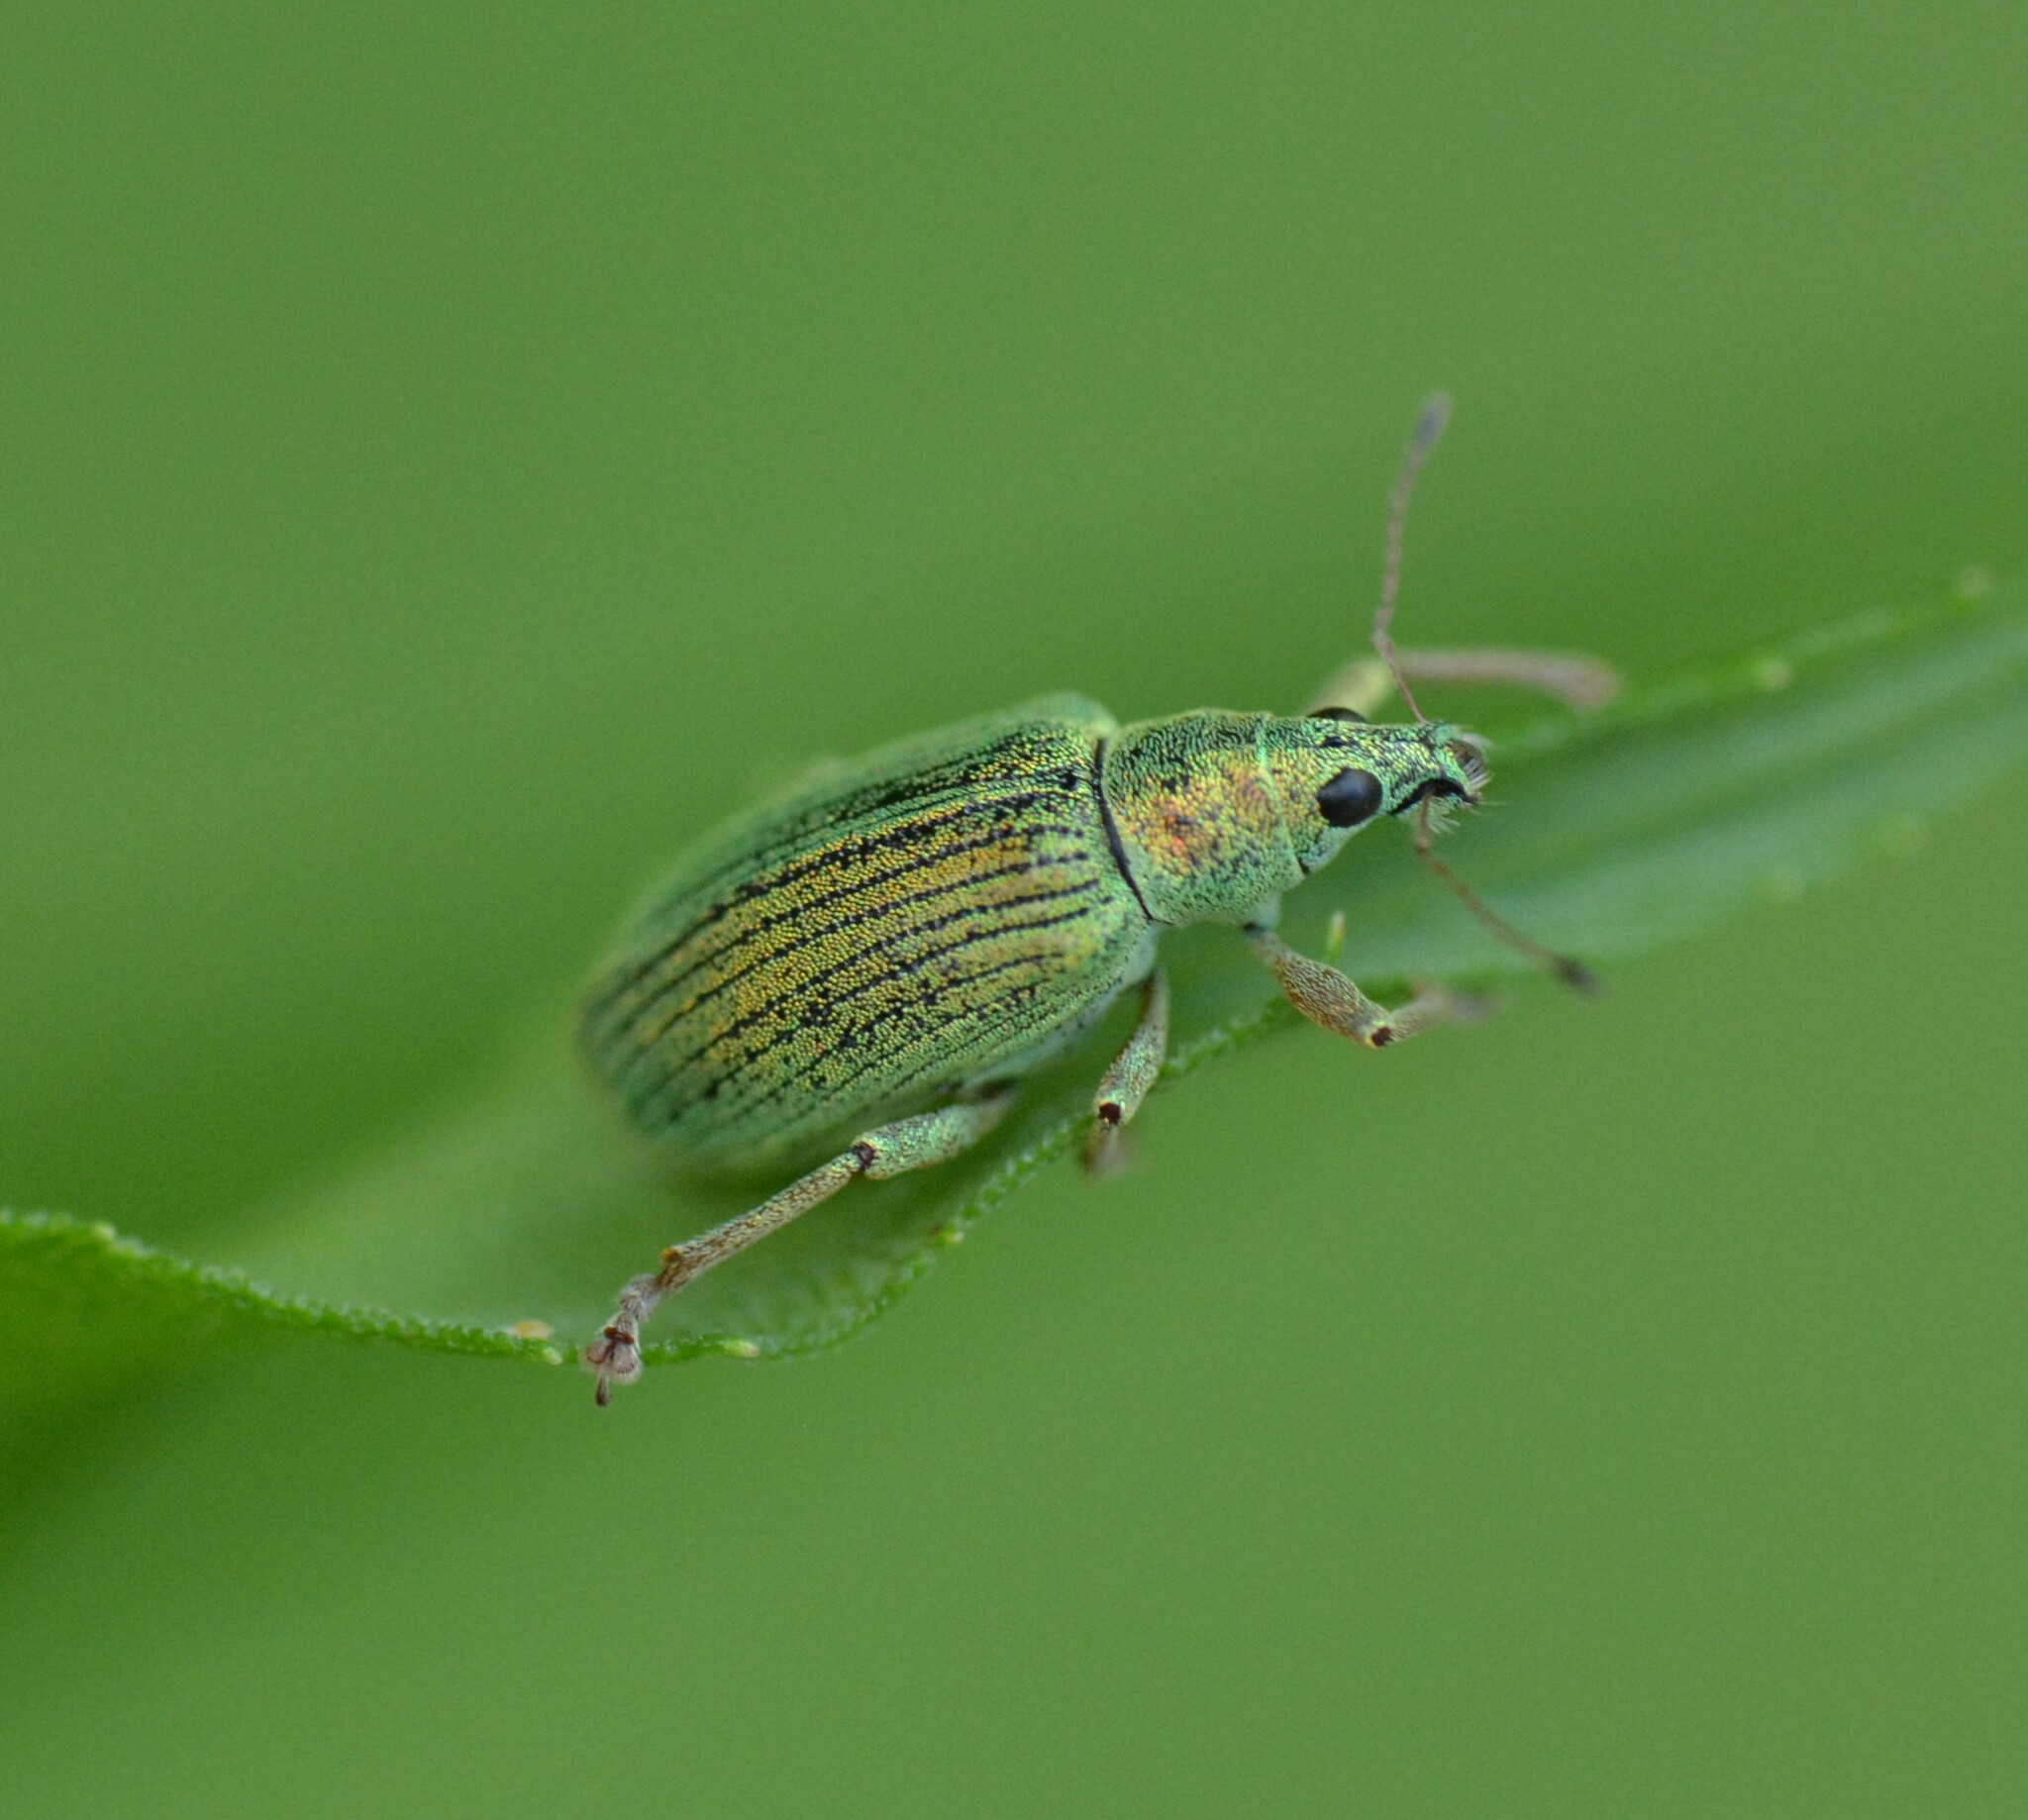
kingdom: Animalia
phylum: Arthropoda
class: Insecta
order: Coleoptera
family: Curculionidae
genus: Polydrusus
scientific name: Polydrusus formosus
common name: Weevil
